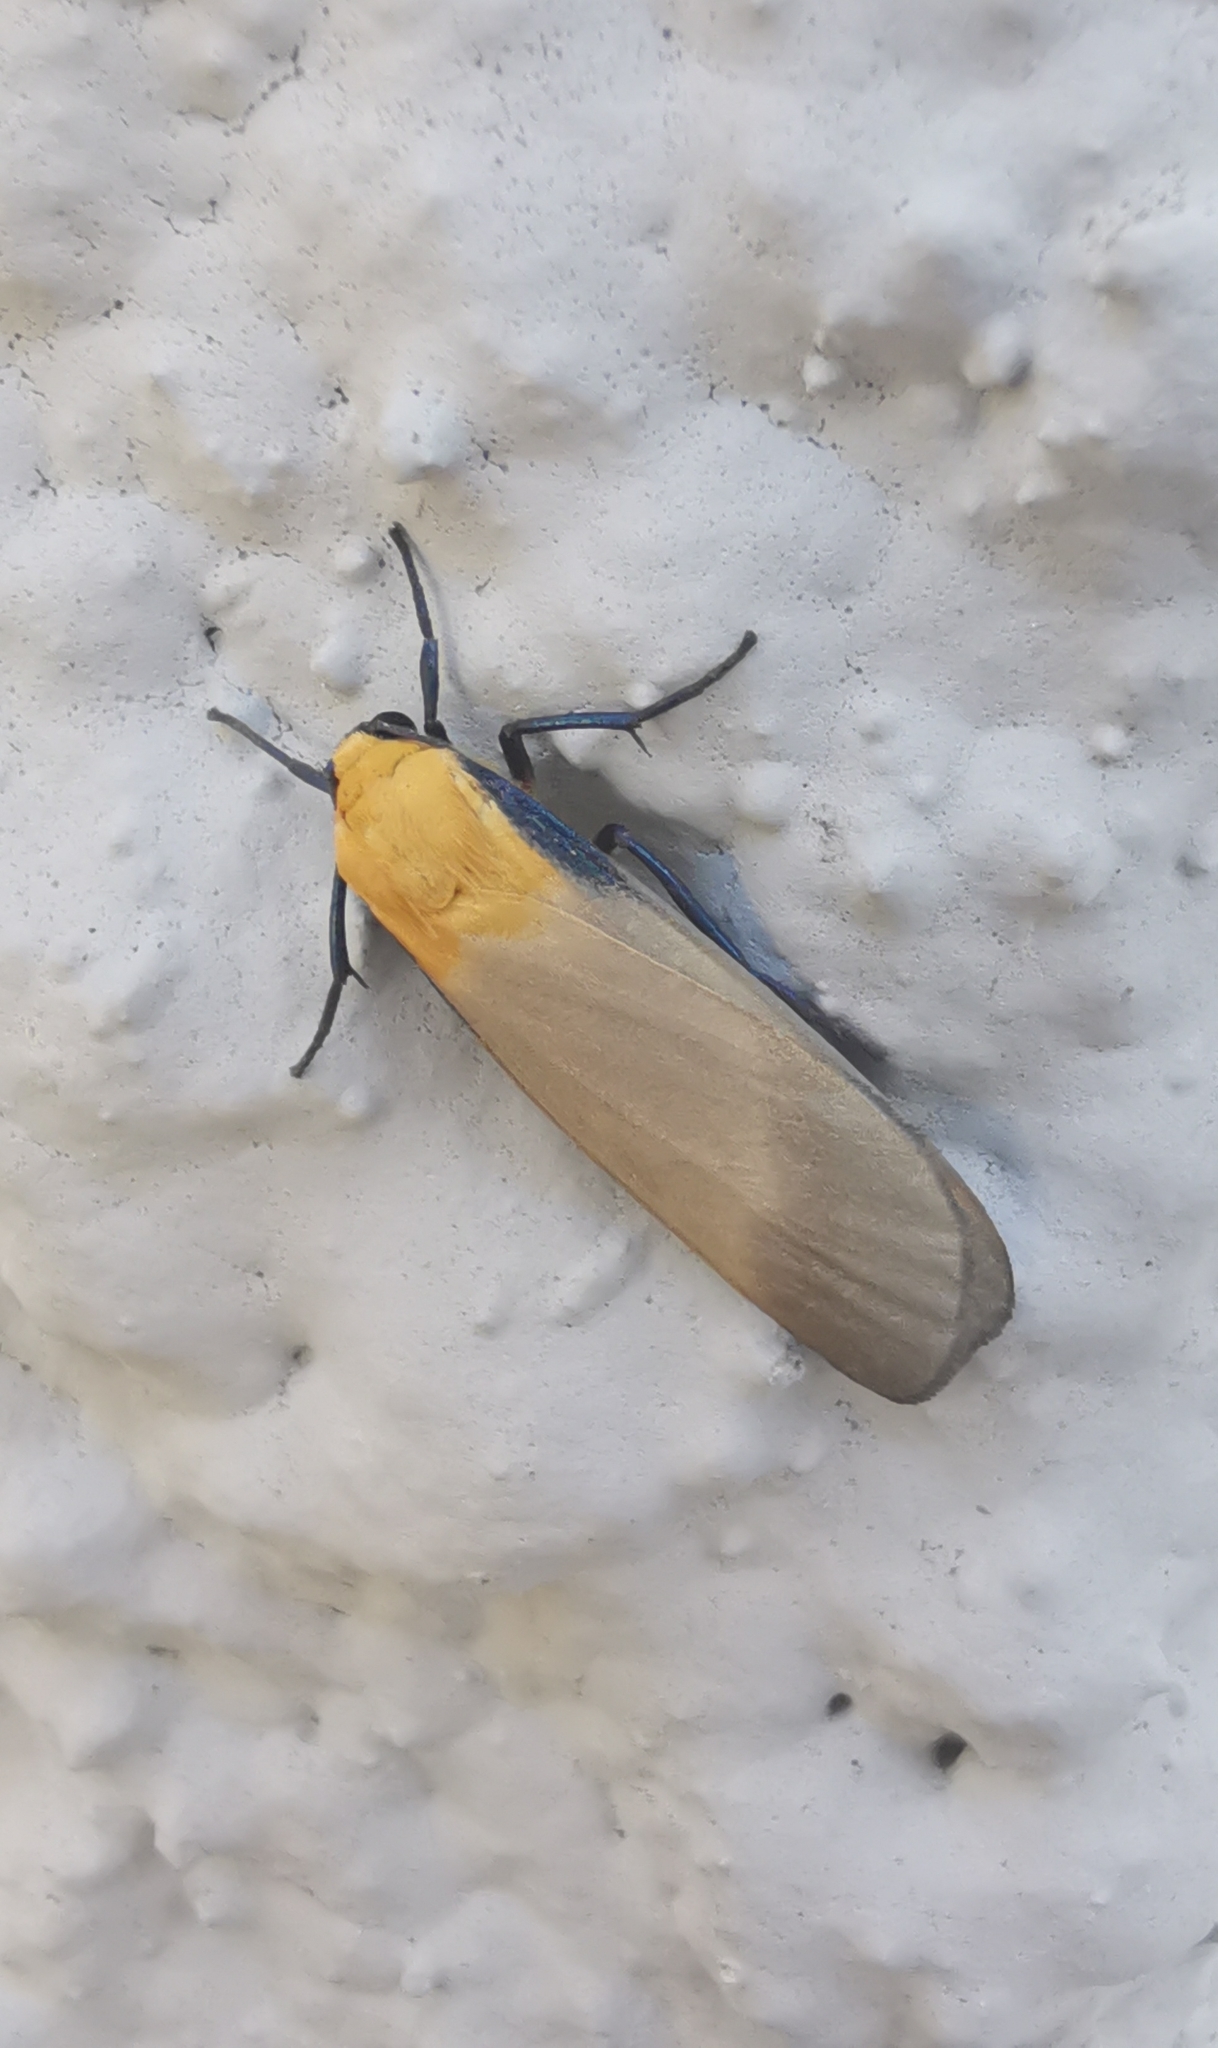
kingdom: Animalia
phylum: Arthropoda
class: Insecta
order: Lepidoptera
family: Erebidae
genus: Lithosia
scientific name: Lithosia quadra
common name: Four-spotted footman
